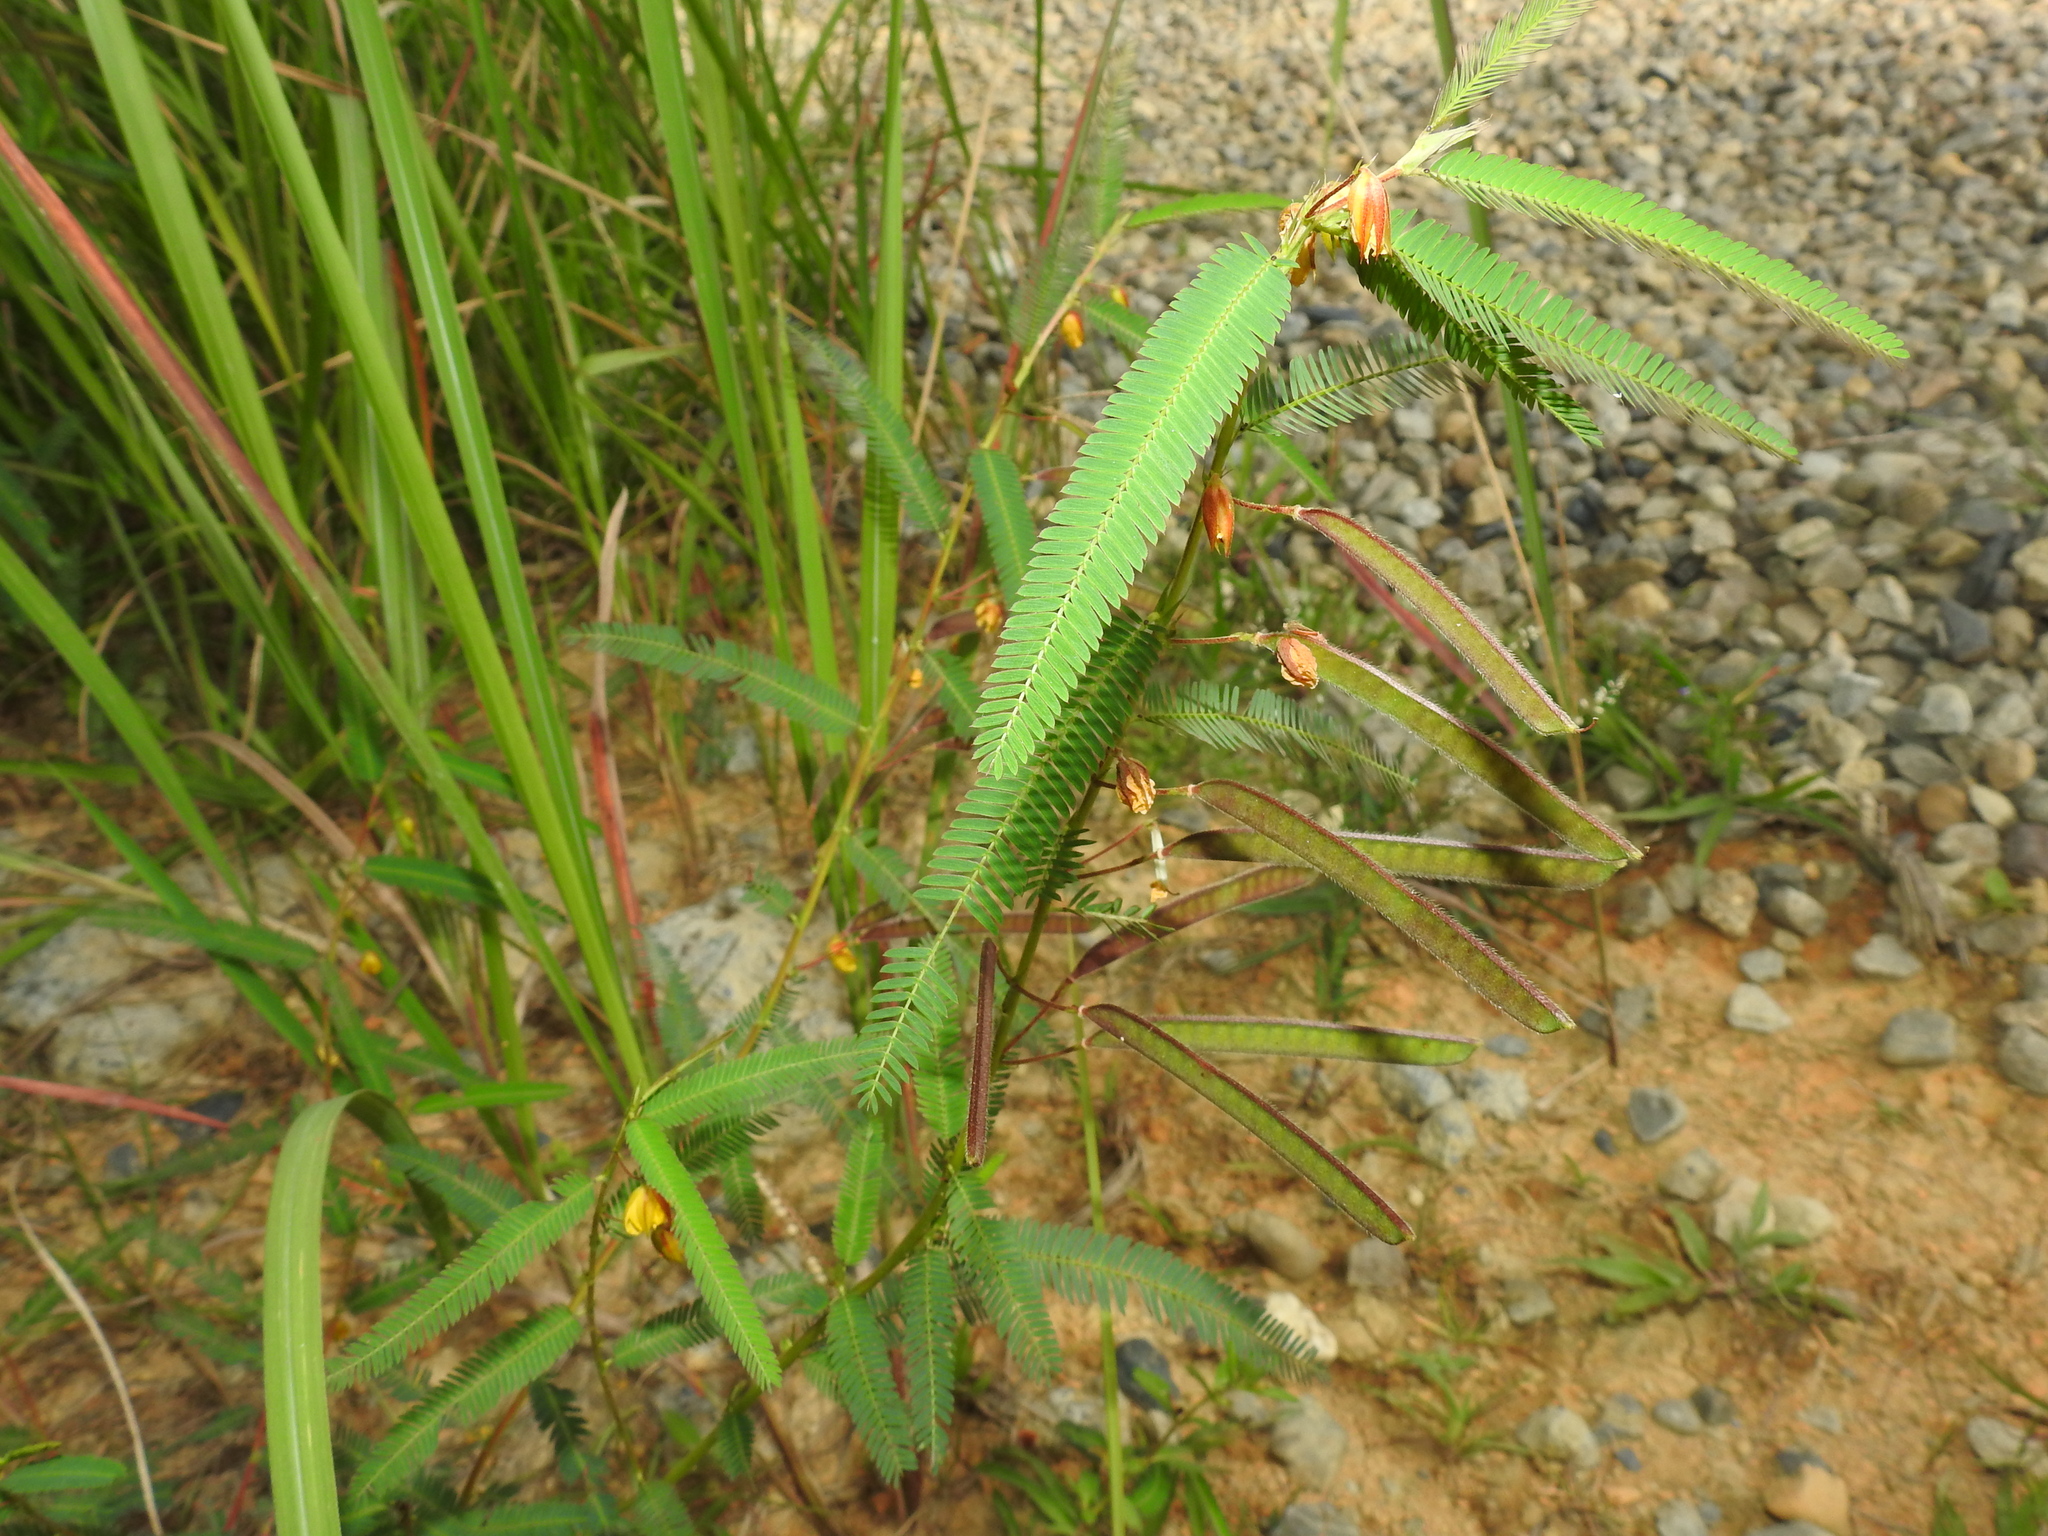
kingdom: Plantae
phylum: Tracheophyta
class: Magnoliopsida
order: Fabales
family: Fabaceae
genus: Chamaecrista
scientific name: Chamaecrista mimosoides
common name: Fish-bone cassia
